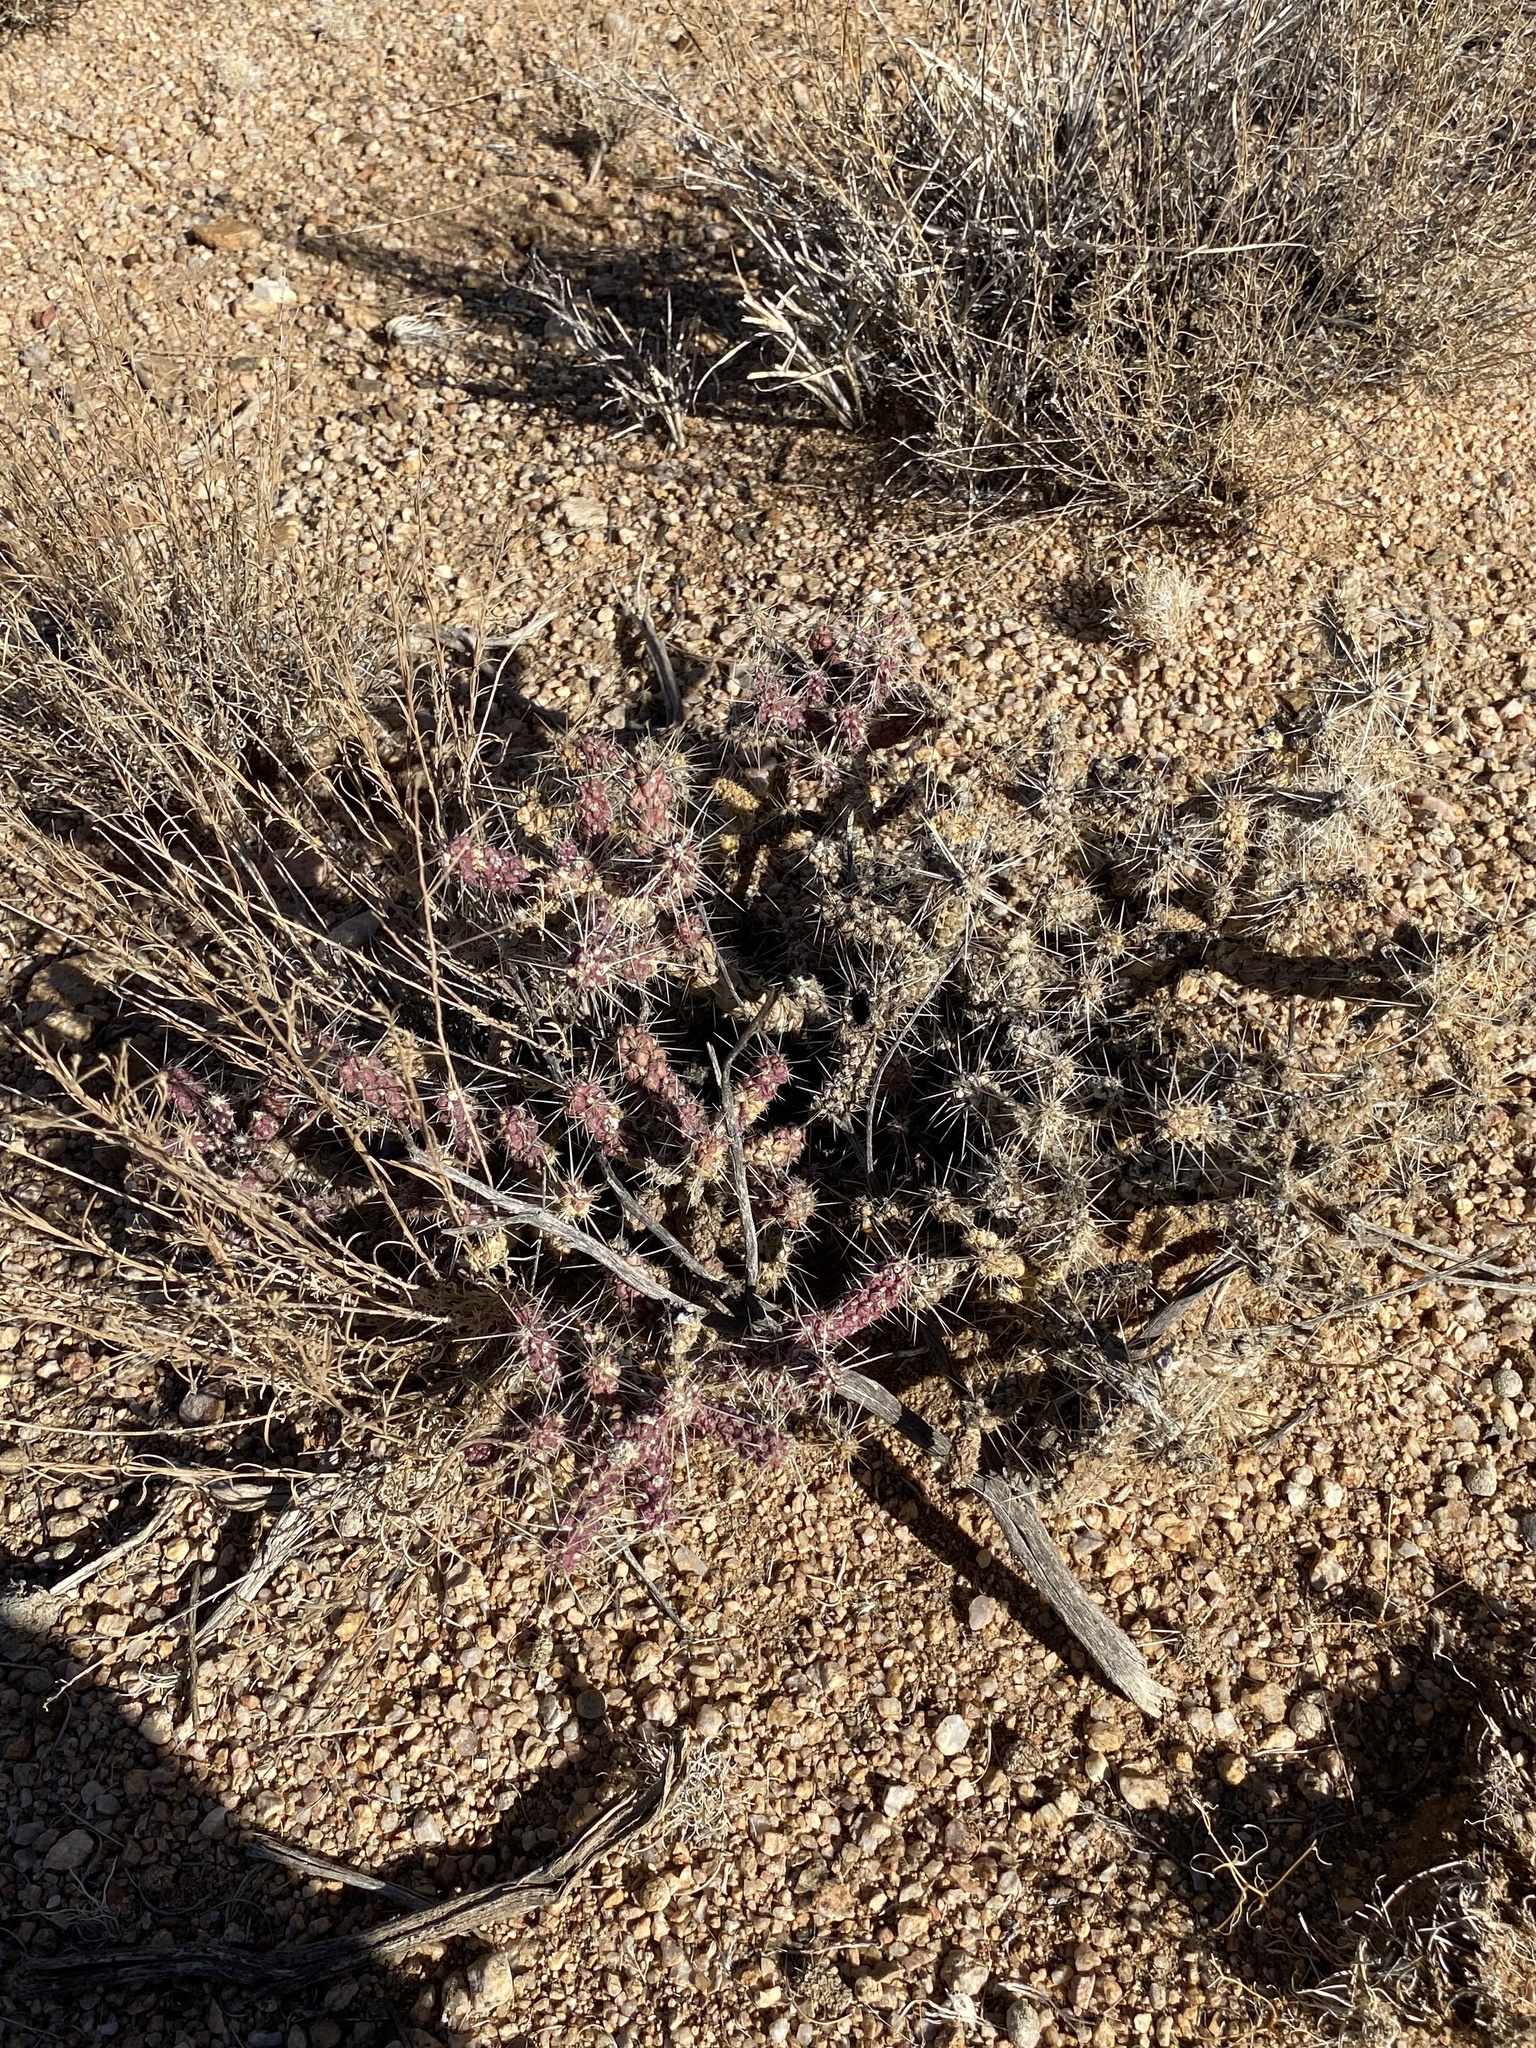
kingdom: Plantae
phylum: Tracheophyta
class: Magnoliopsida
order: Caryophyllales
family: Cactaceae
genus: Cylindropuntia
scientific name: Cylindropuntia whipplei
